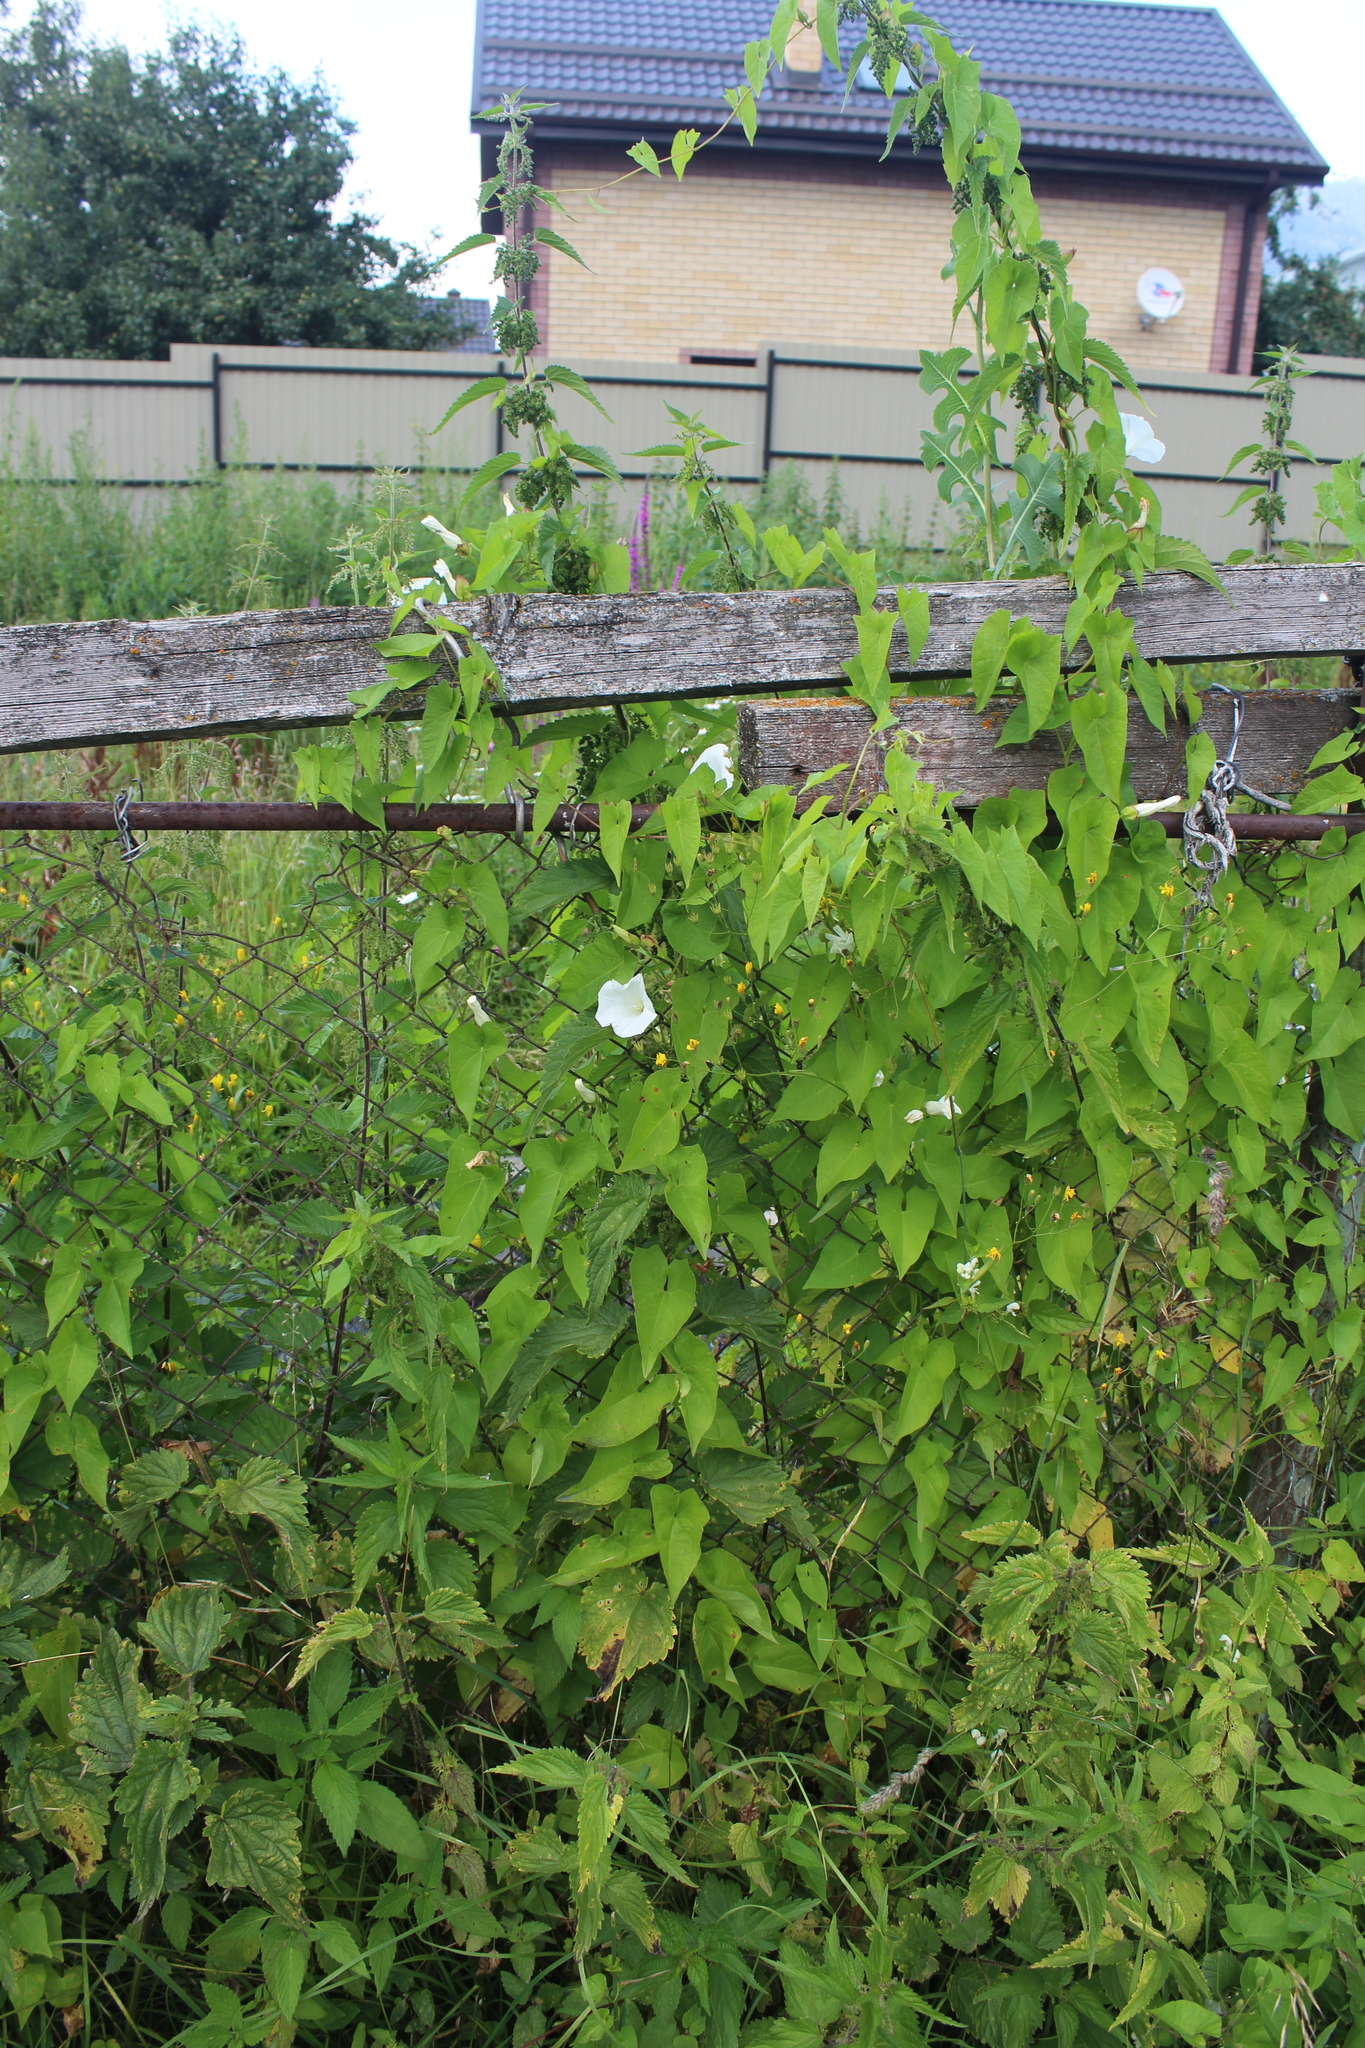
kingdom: Plantae
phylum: Tracheophyta
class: Magnoliopsida
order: Solanales
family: Convolvulaceae
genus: Calystegia
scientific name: Calystegia sepium
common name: Hedge bindweed
